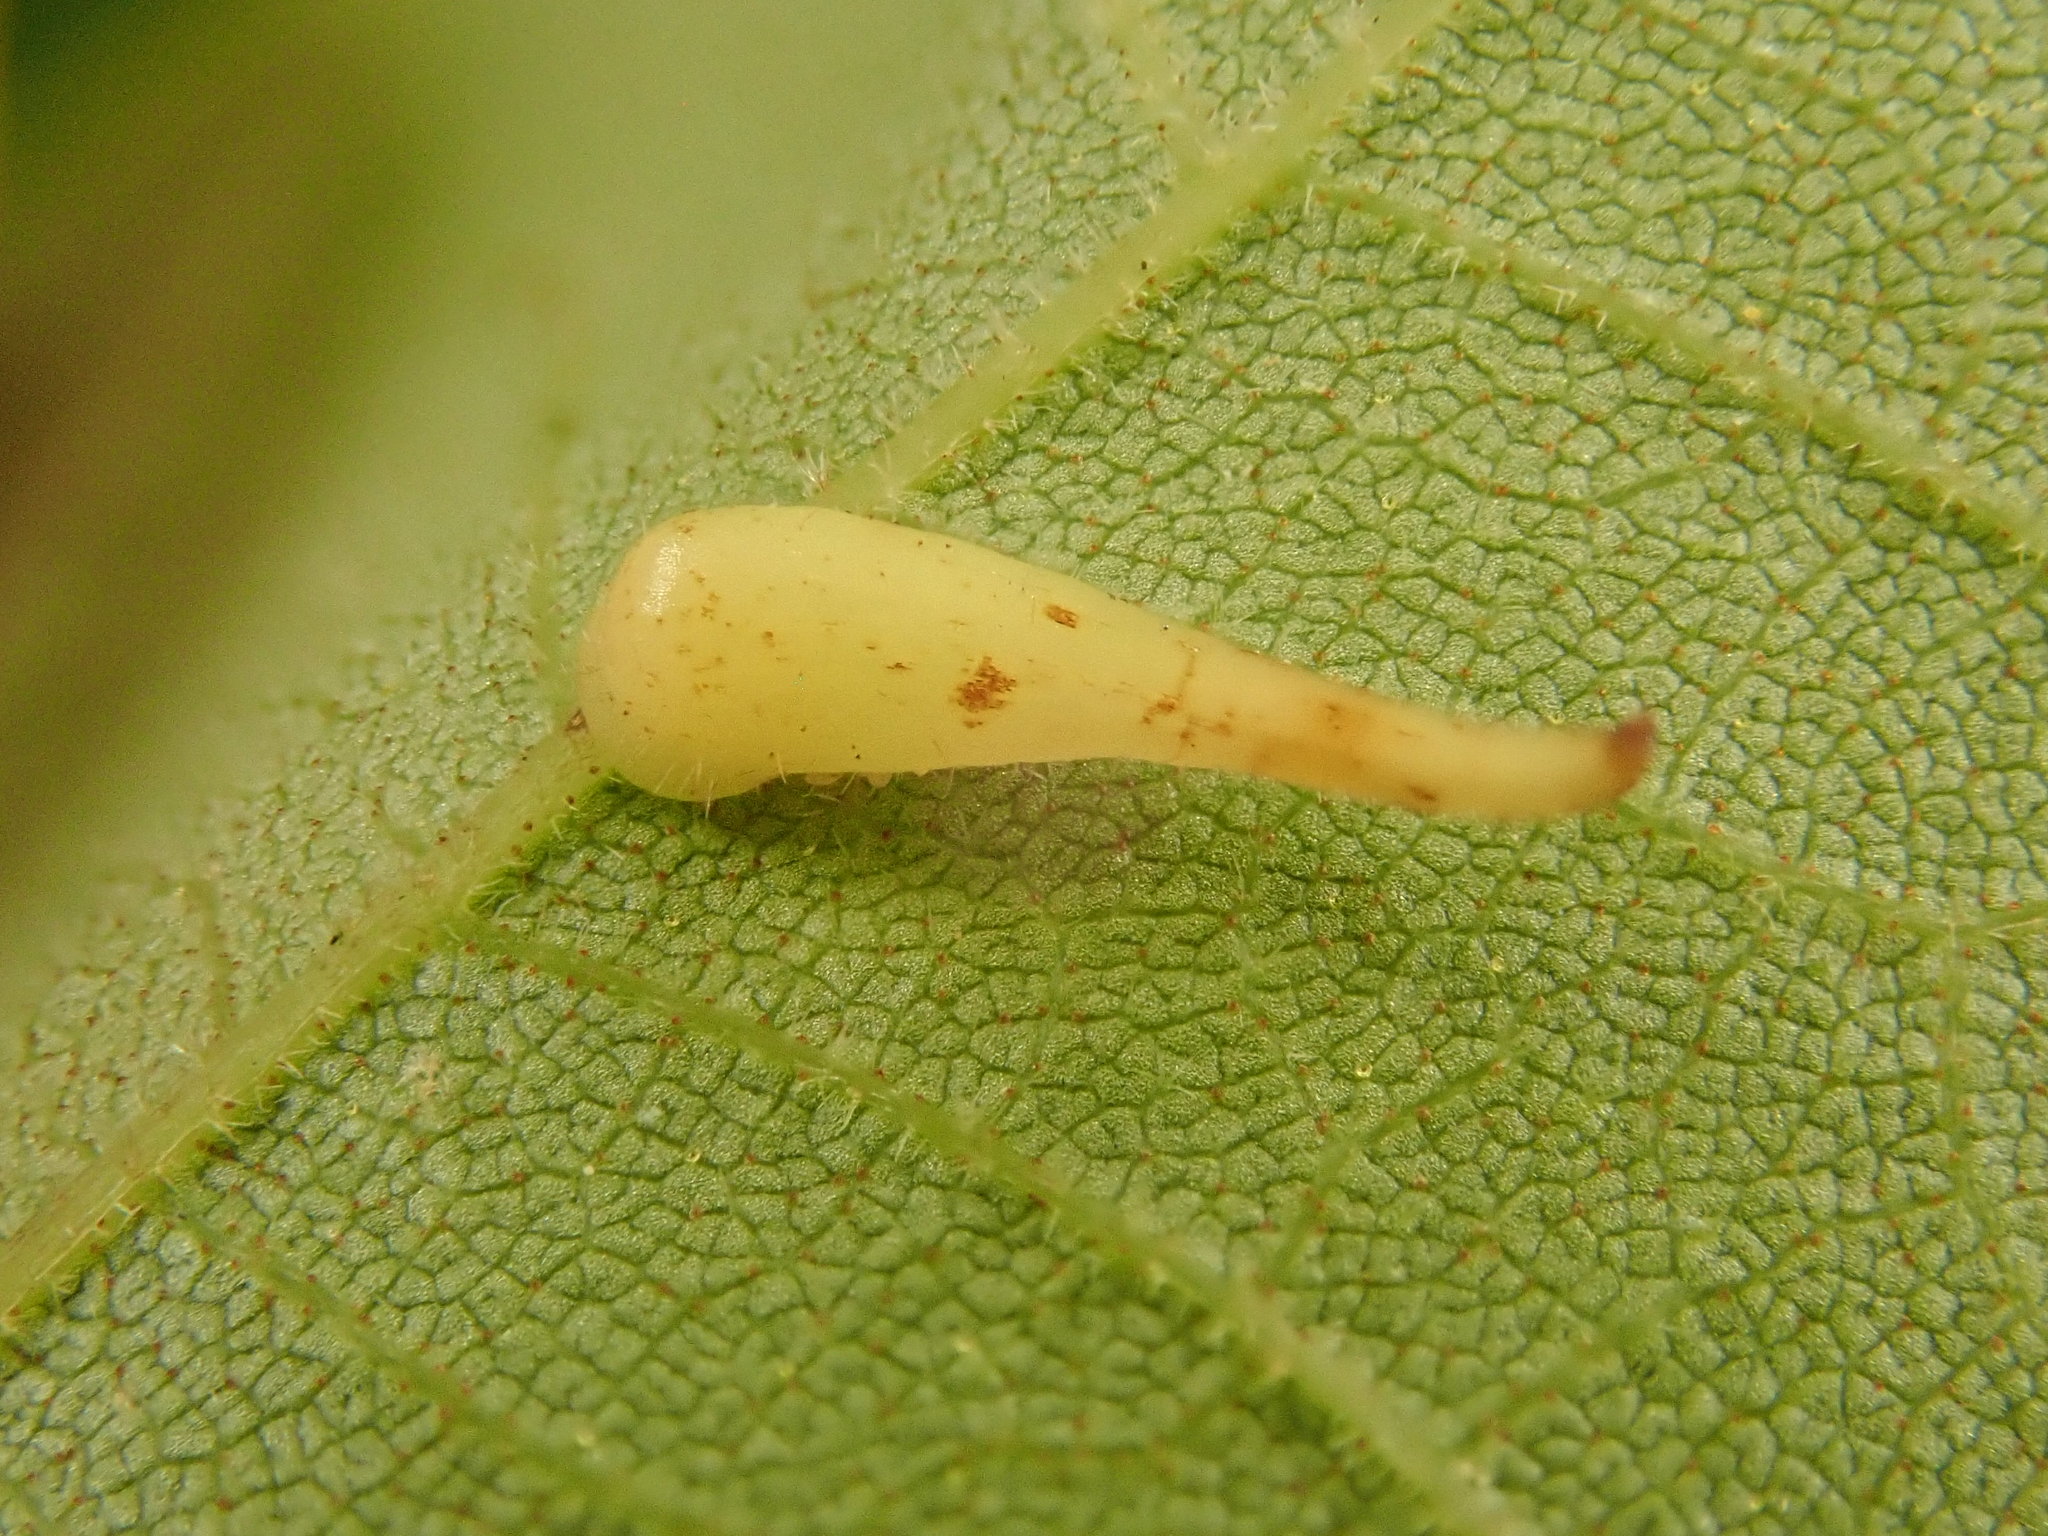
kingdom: Animalia
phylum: Arthropoda
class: Insecta
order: Diptera
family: Cecidomyiidae
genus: Caryomyia
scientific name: Caryomyia procumbens
